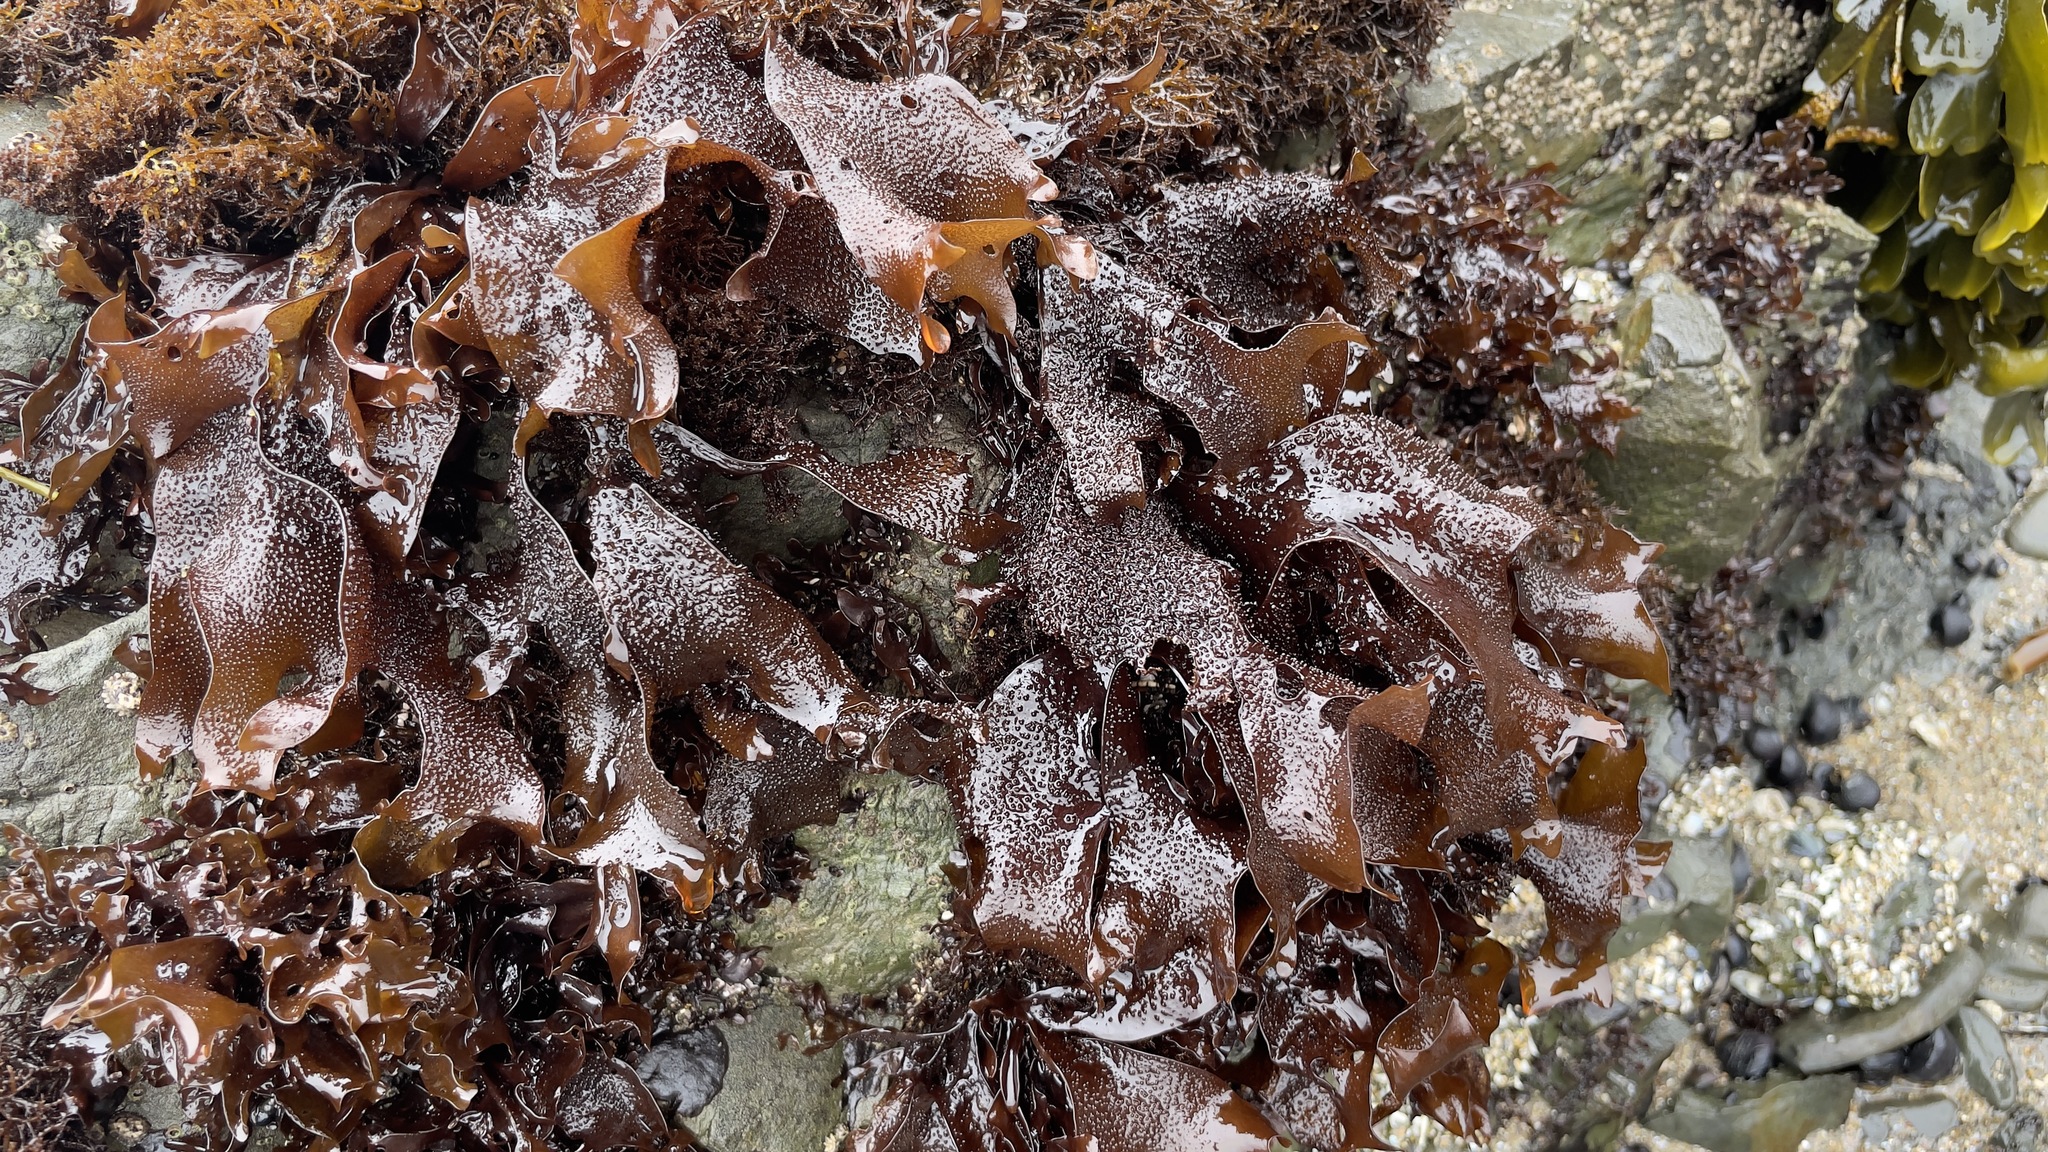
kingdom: Plantae
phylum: Rhodophyta
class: Florideophyceae
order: Gigartinales
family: Phyllophoraceae
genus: Mastocarpus
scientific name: Mastocarpus papillatus
